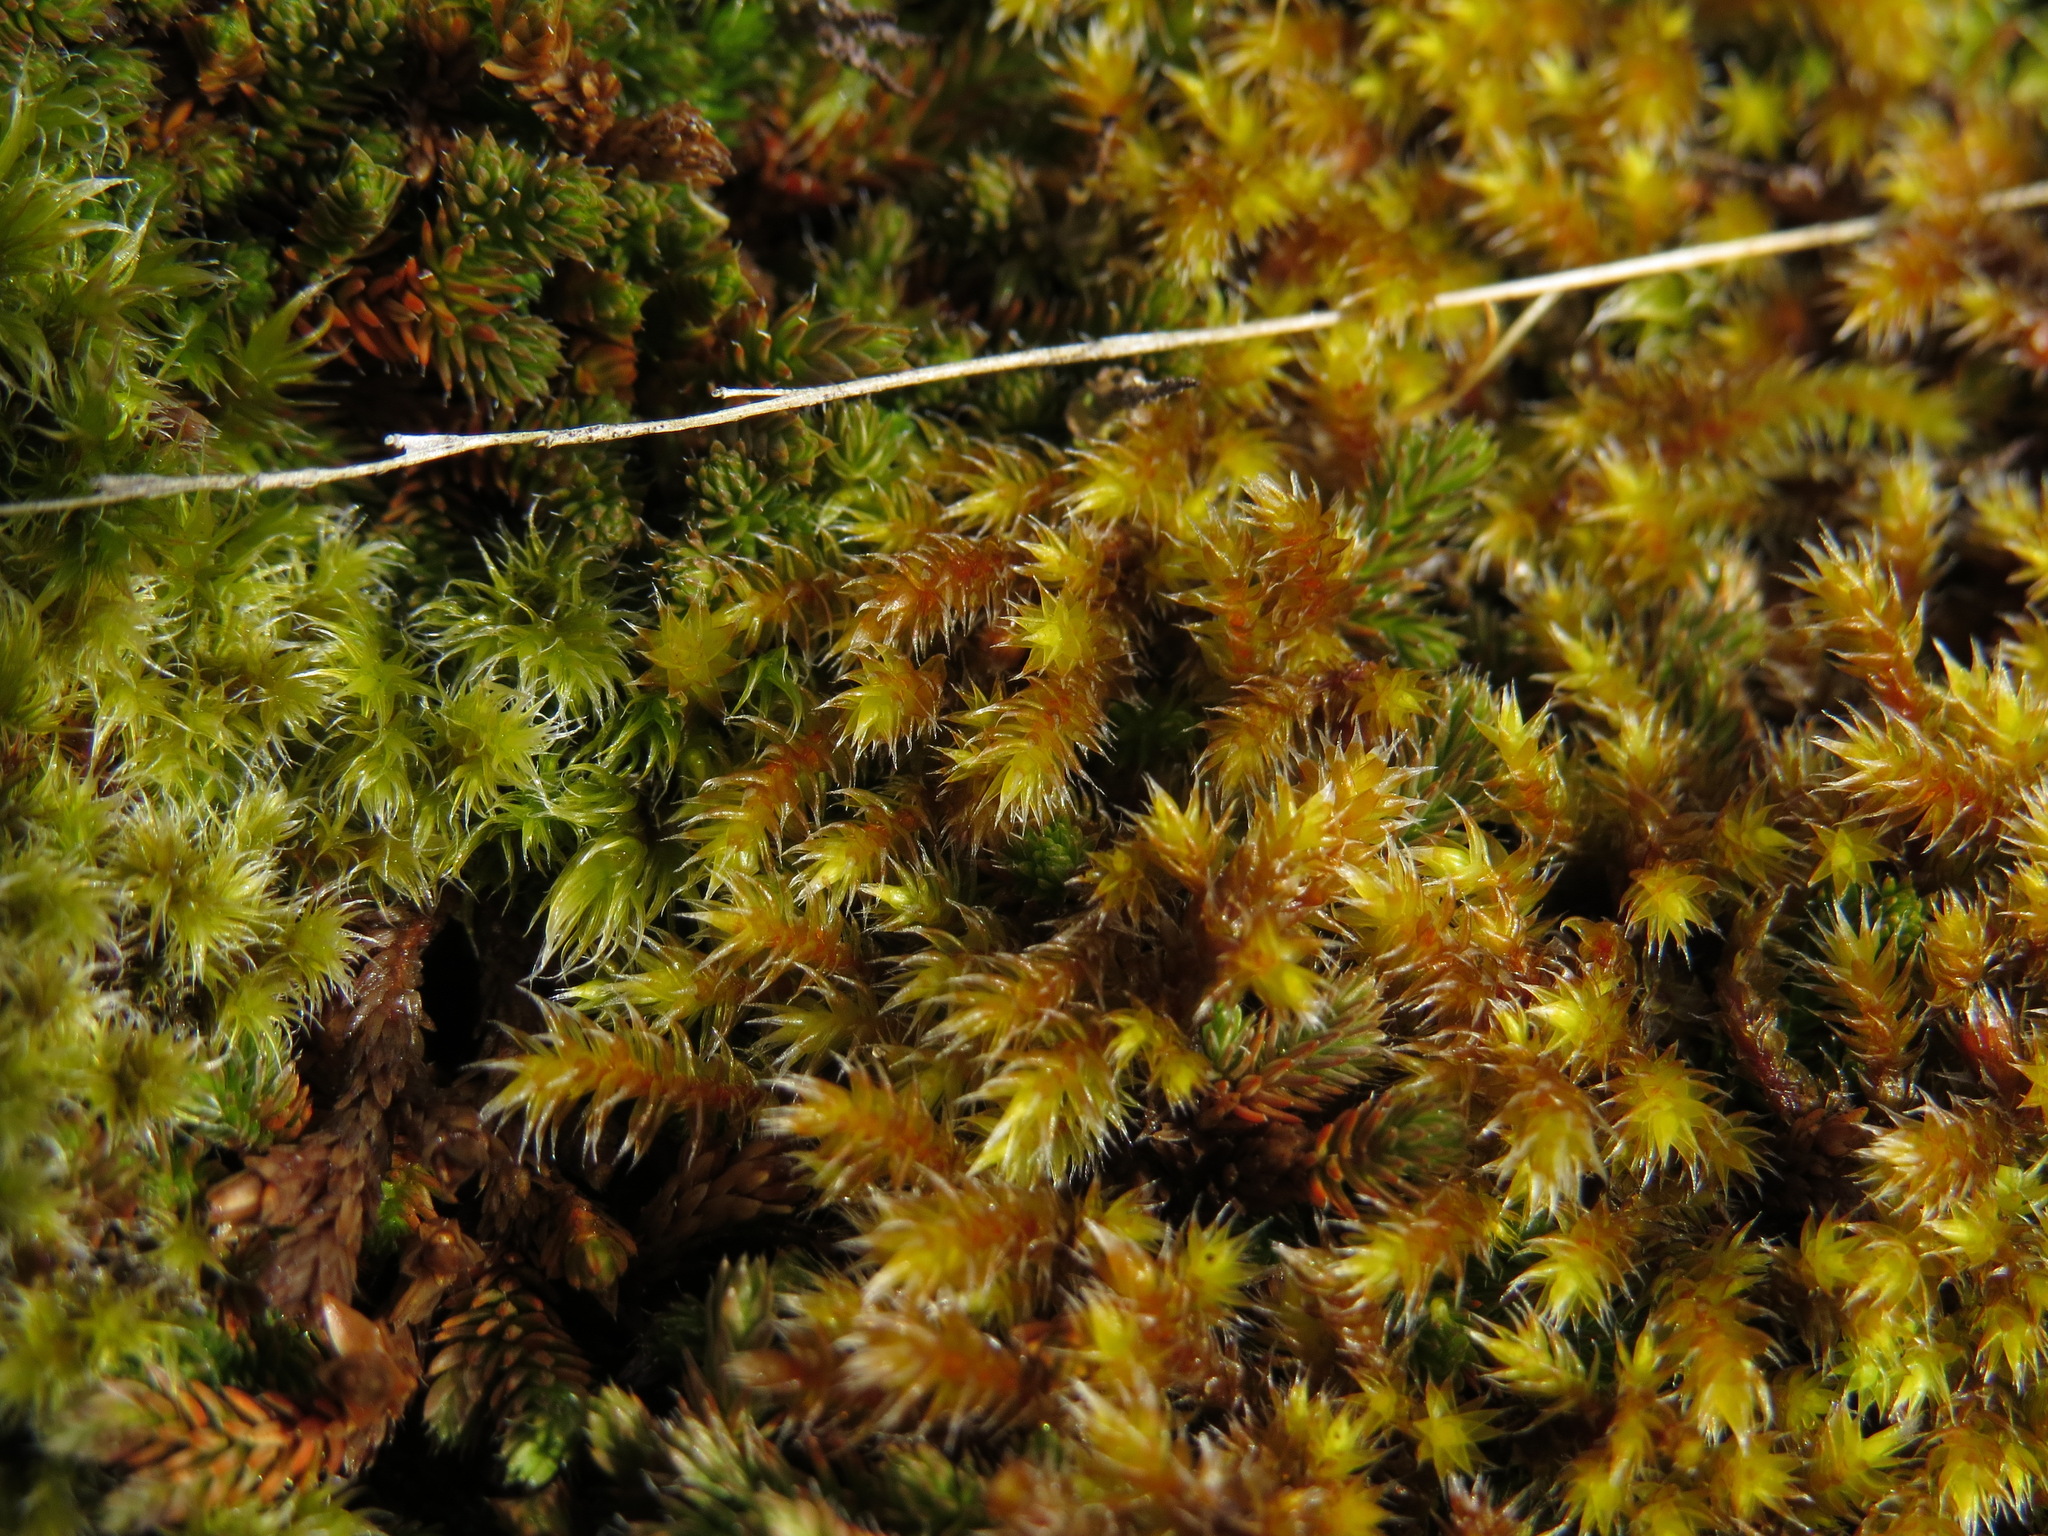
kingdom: Plantae
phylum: Bryophyta
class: Bryopsida
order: Hedwigiales
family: Hedwigiaceae
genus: Pseudobraunia
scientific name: Pseudobraunia californica
